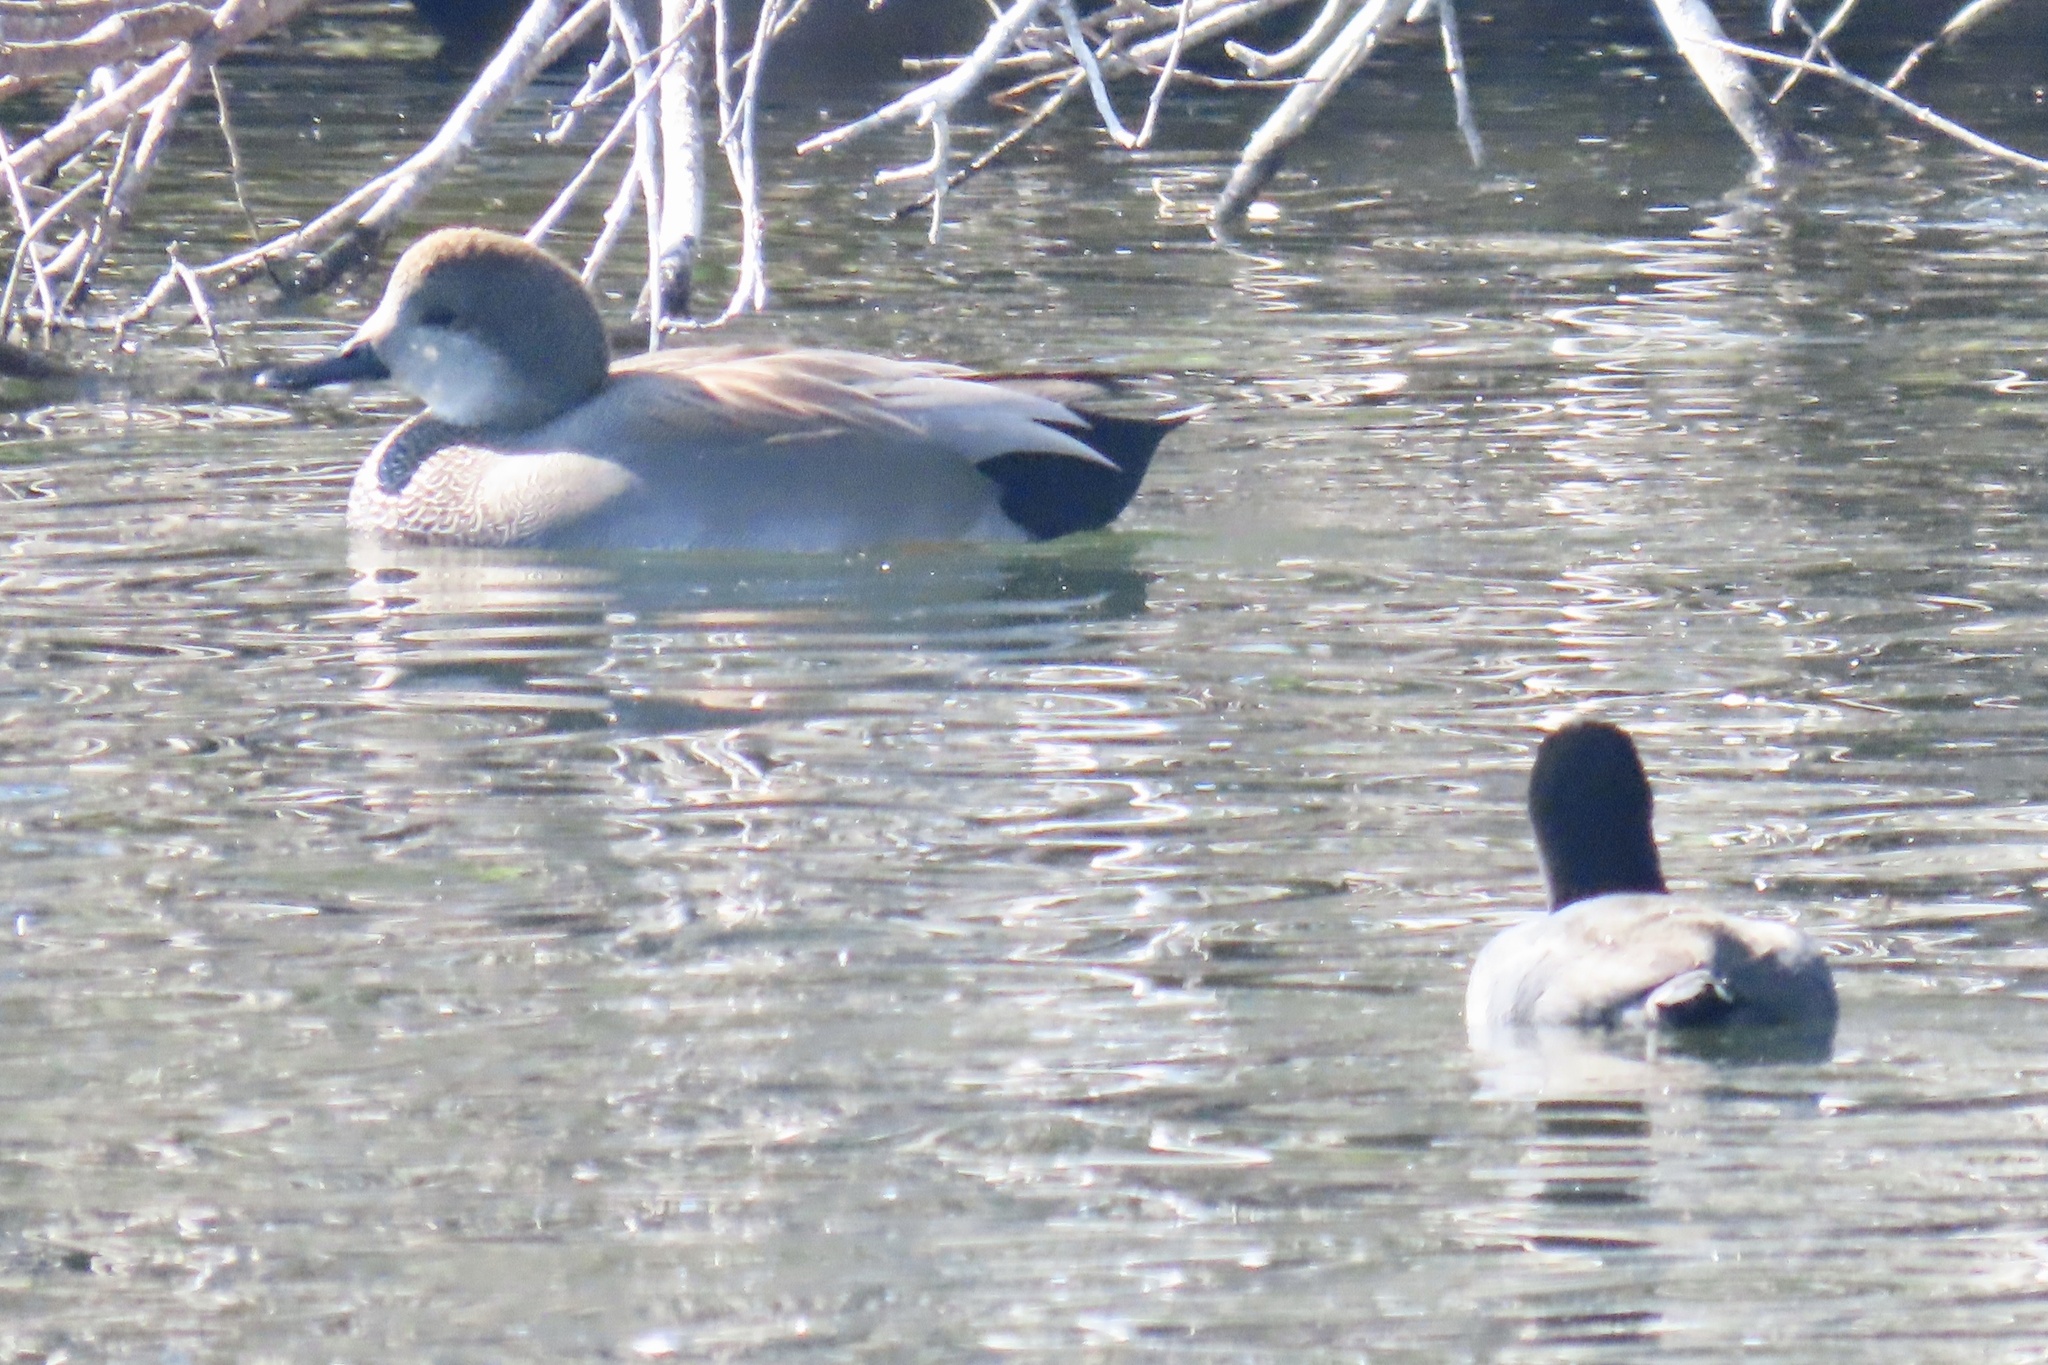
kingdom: Animalia
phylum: Chordata
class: Aves
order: Anseriformes
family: Anatidae
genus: Mareca
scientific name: Mareca strepera
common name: Gadwall
